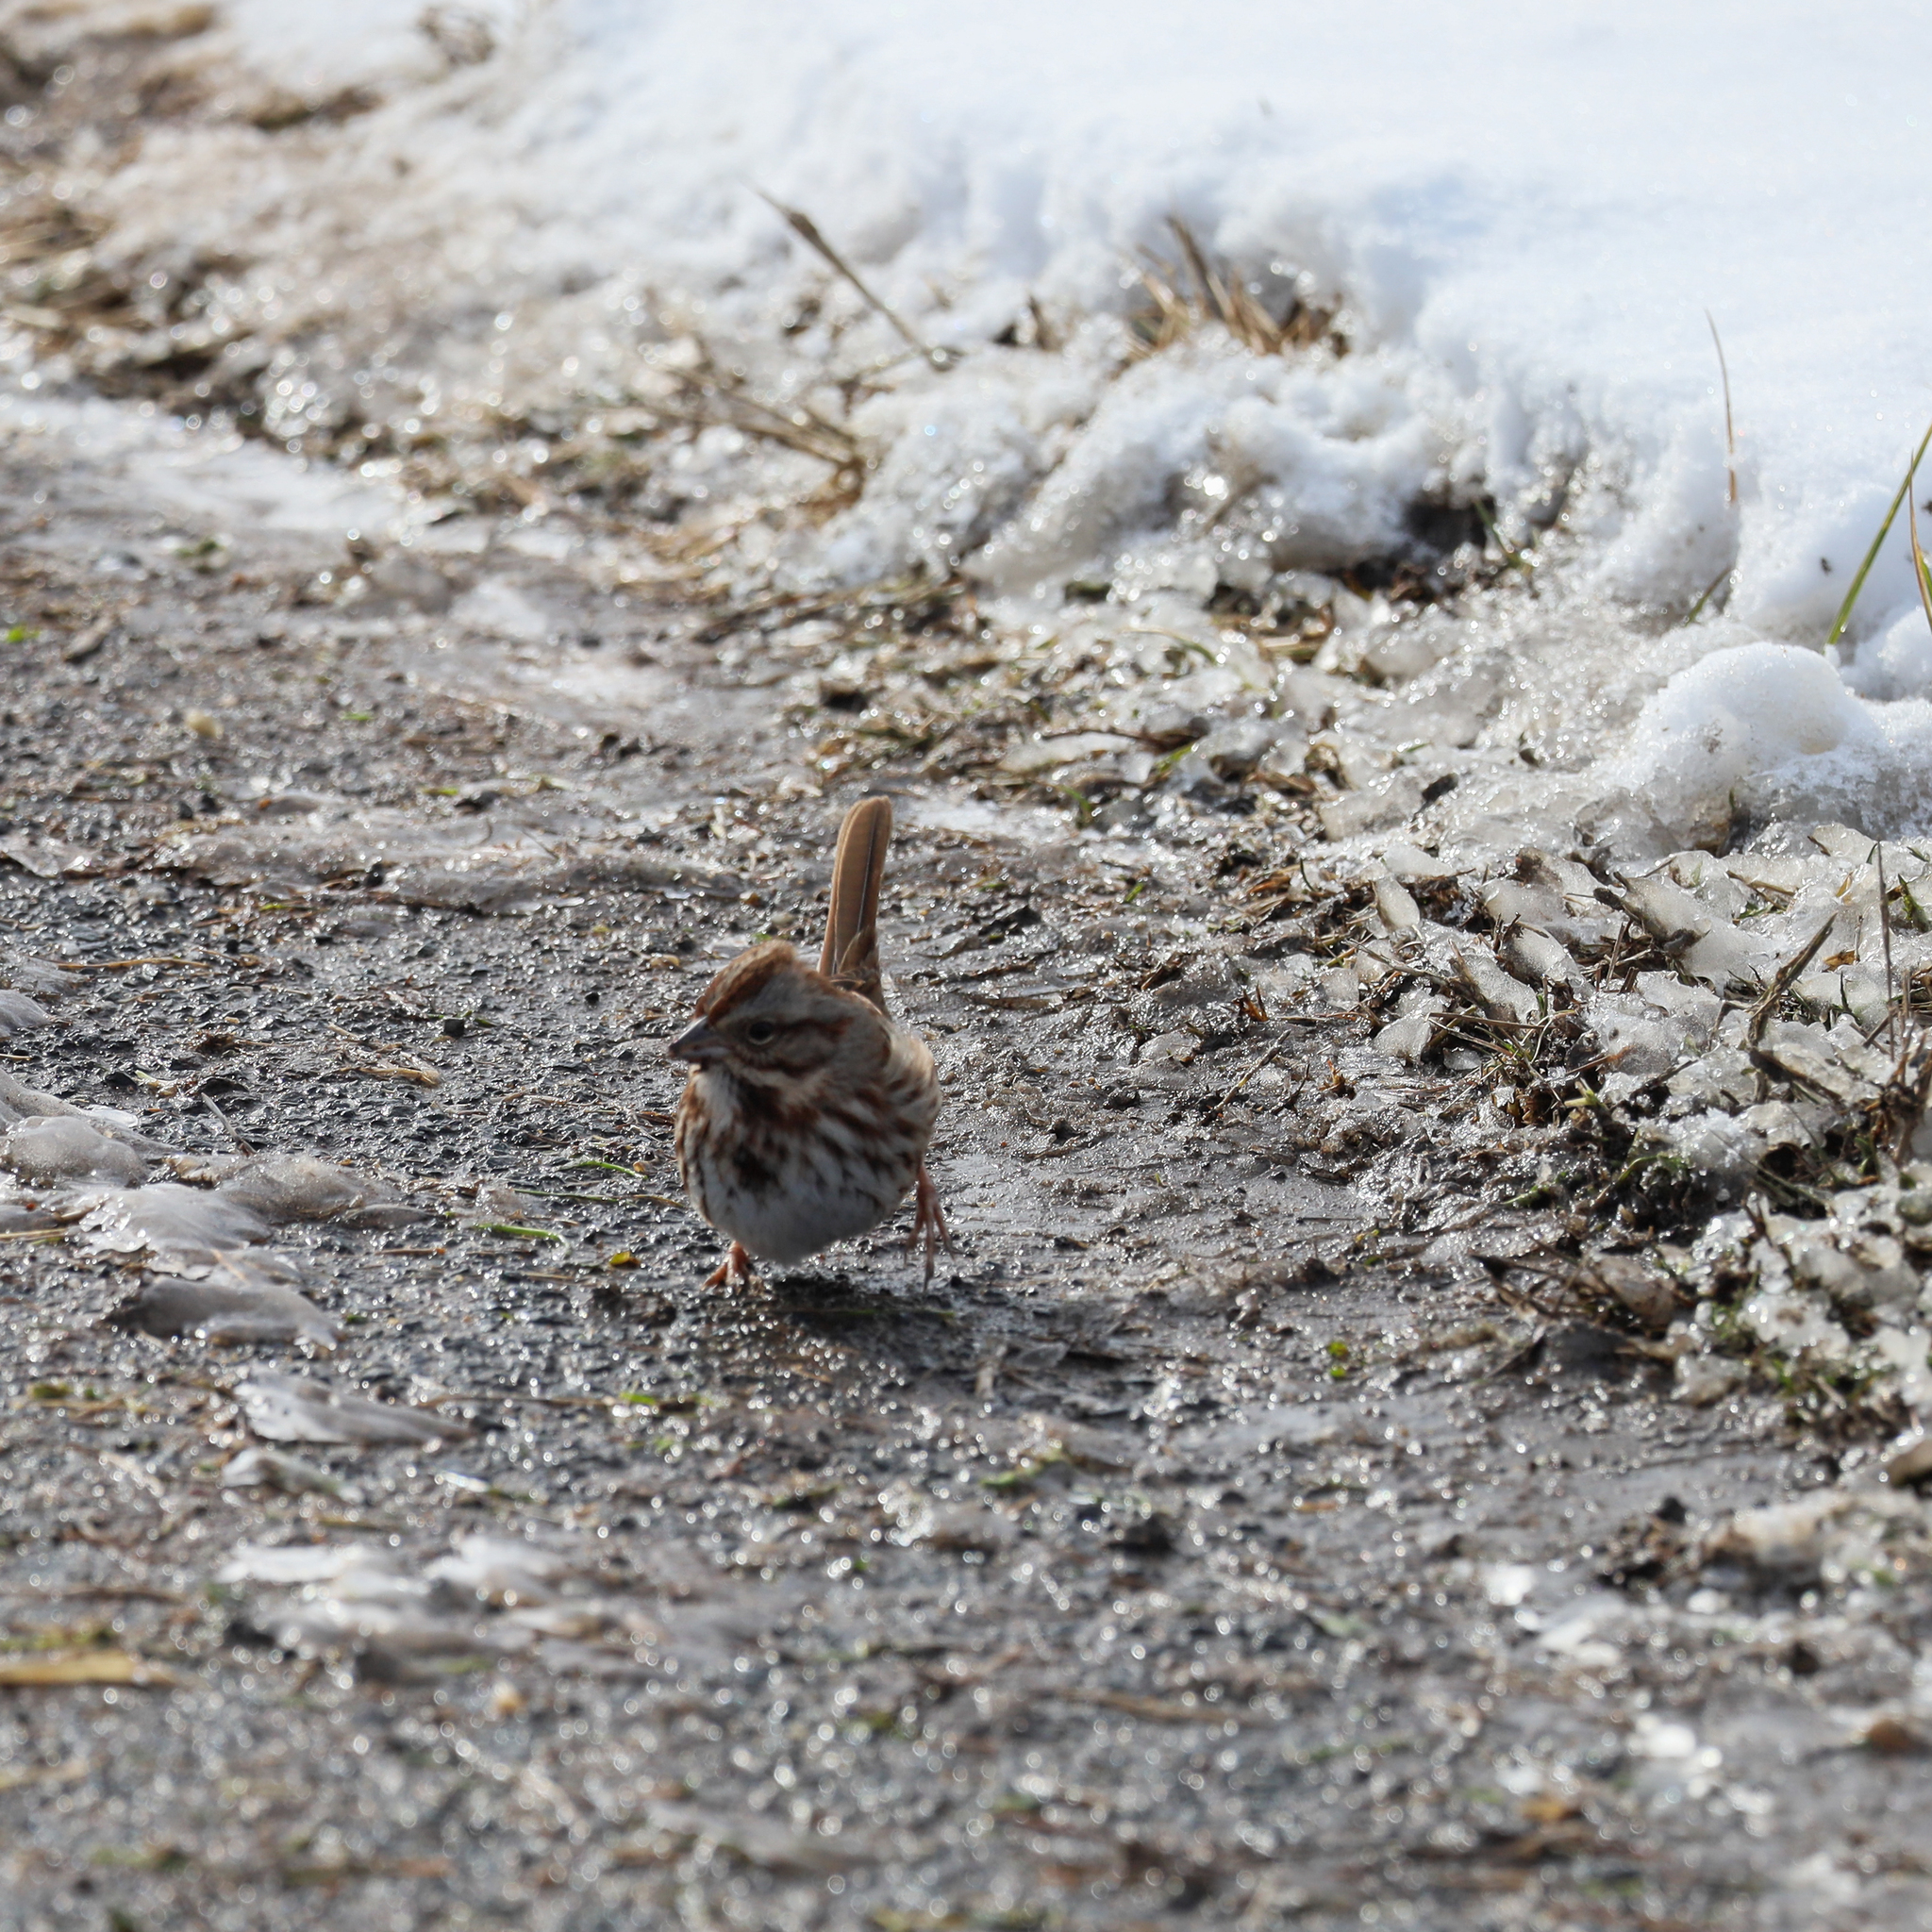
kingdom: Animalia
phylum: Chordata
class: Aves
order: Passeriformes
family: Passerellidae
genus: Melospiza
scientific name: Melospiza melodia
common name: Song sparrow
